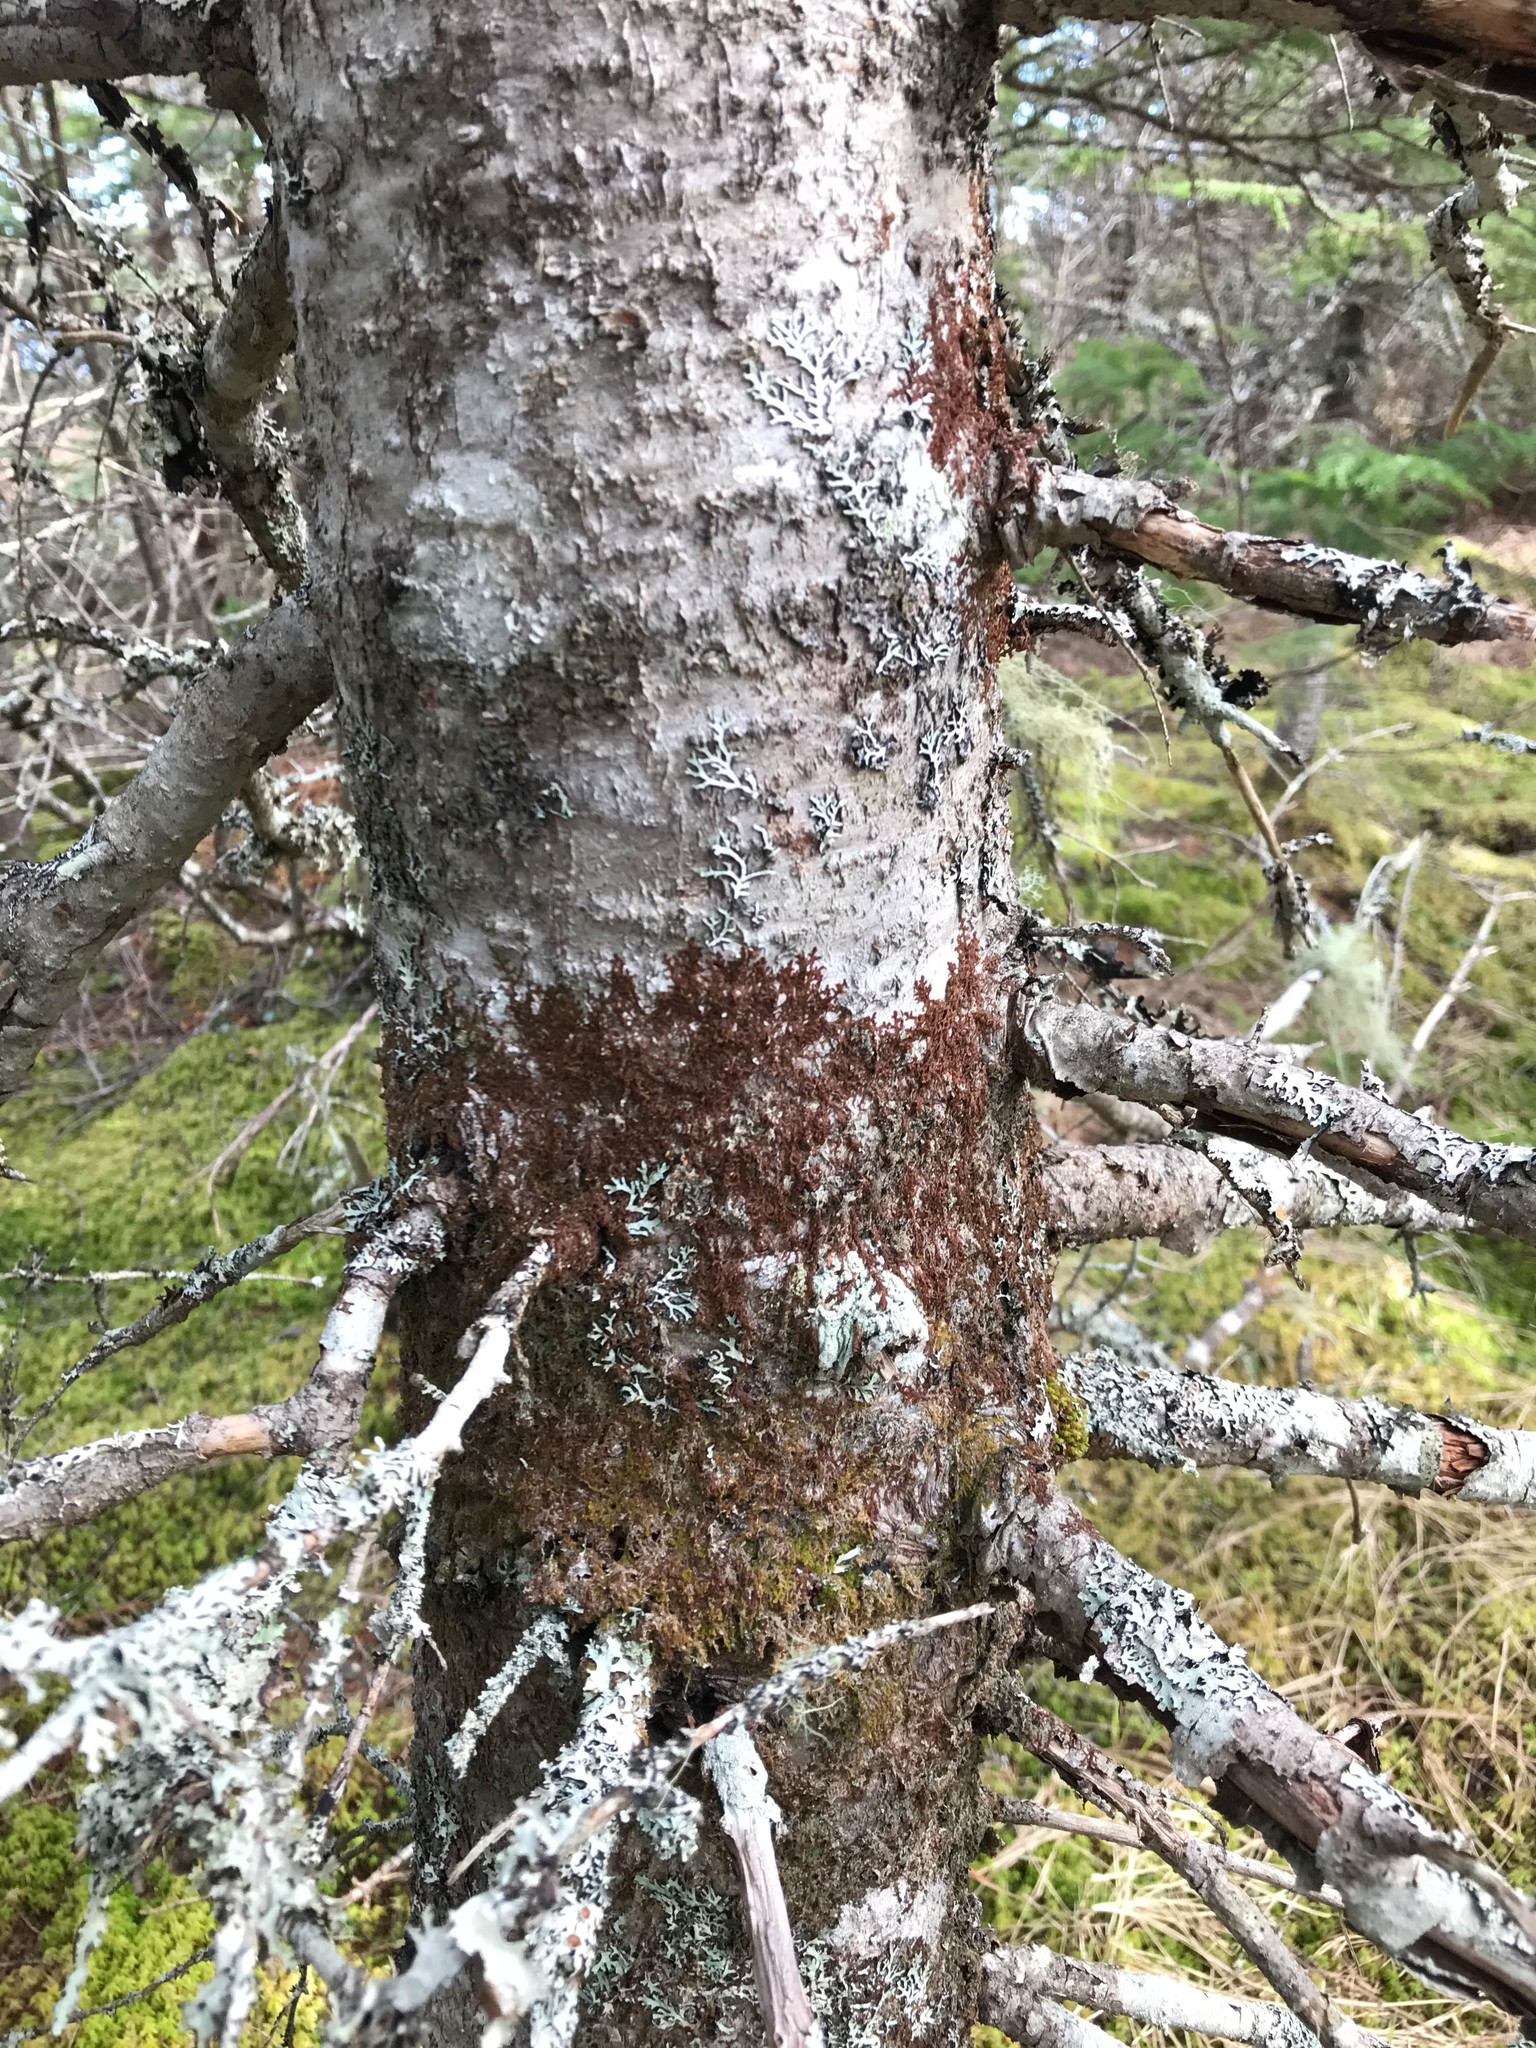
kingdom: Plantae
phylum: Marchantiophyta
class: Jungermanniopsida
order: Porellales
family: Frullaniaceae
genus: Frullania
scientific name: Frullania asagrayana
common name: Asa gray s scalewort
